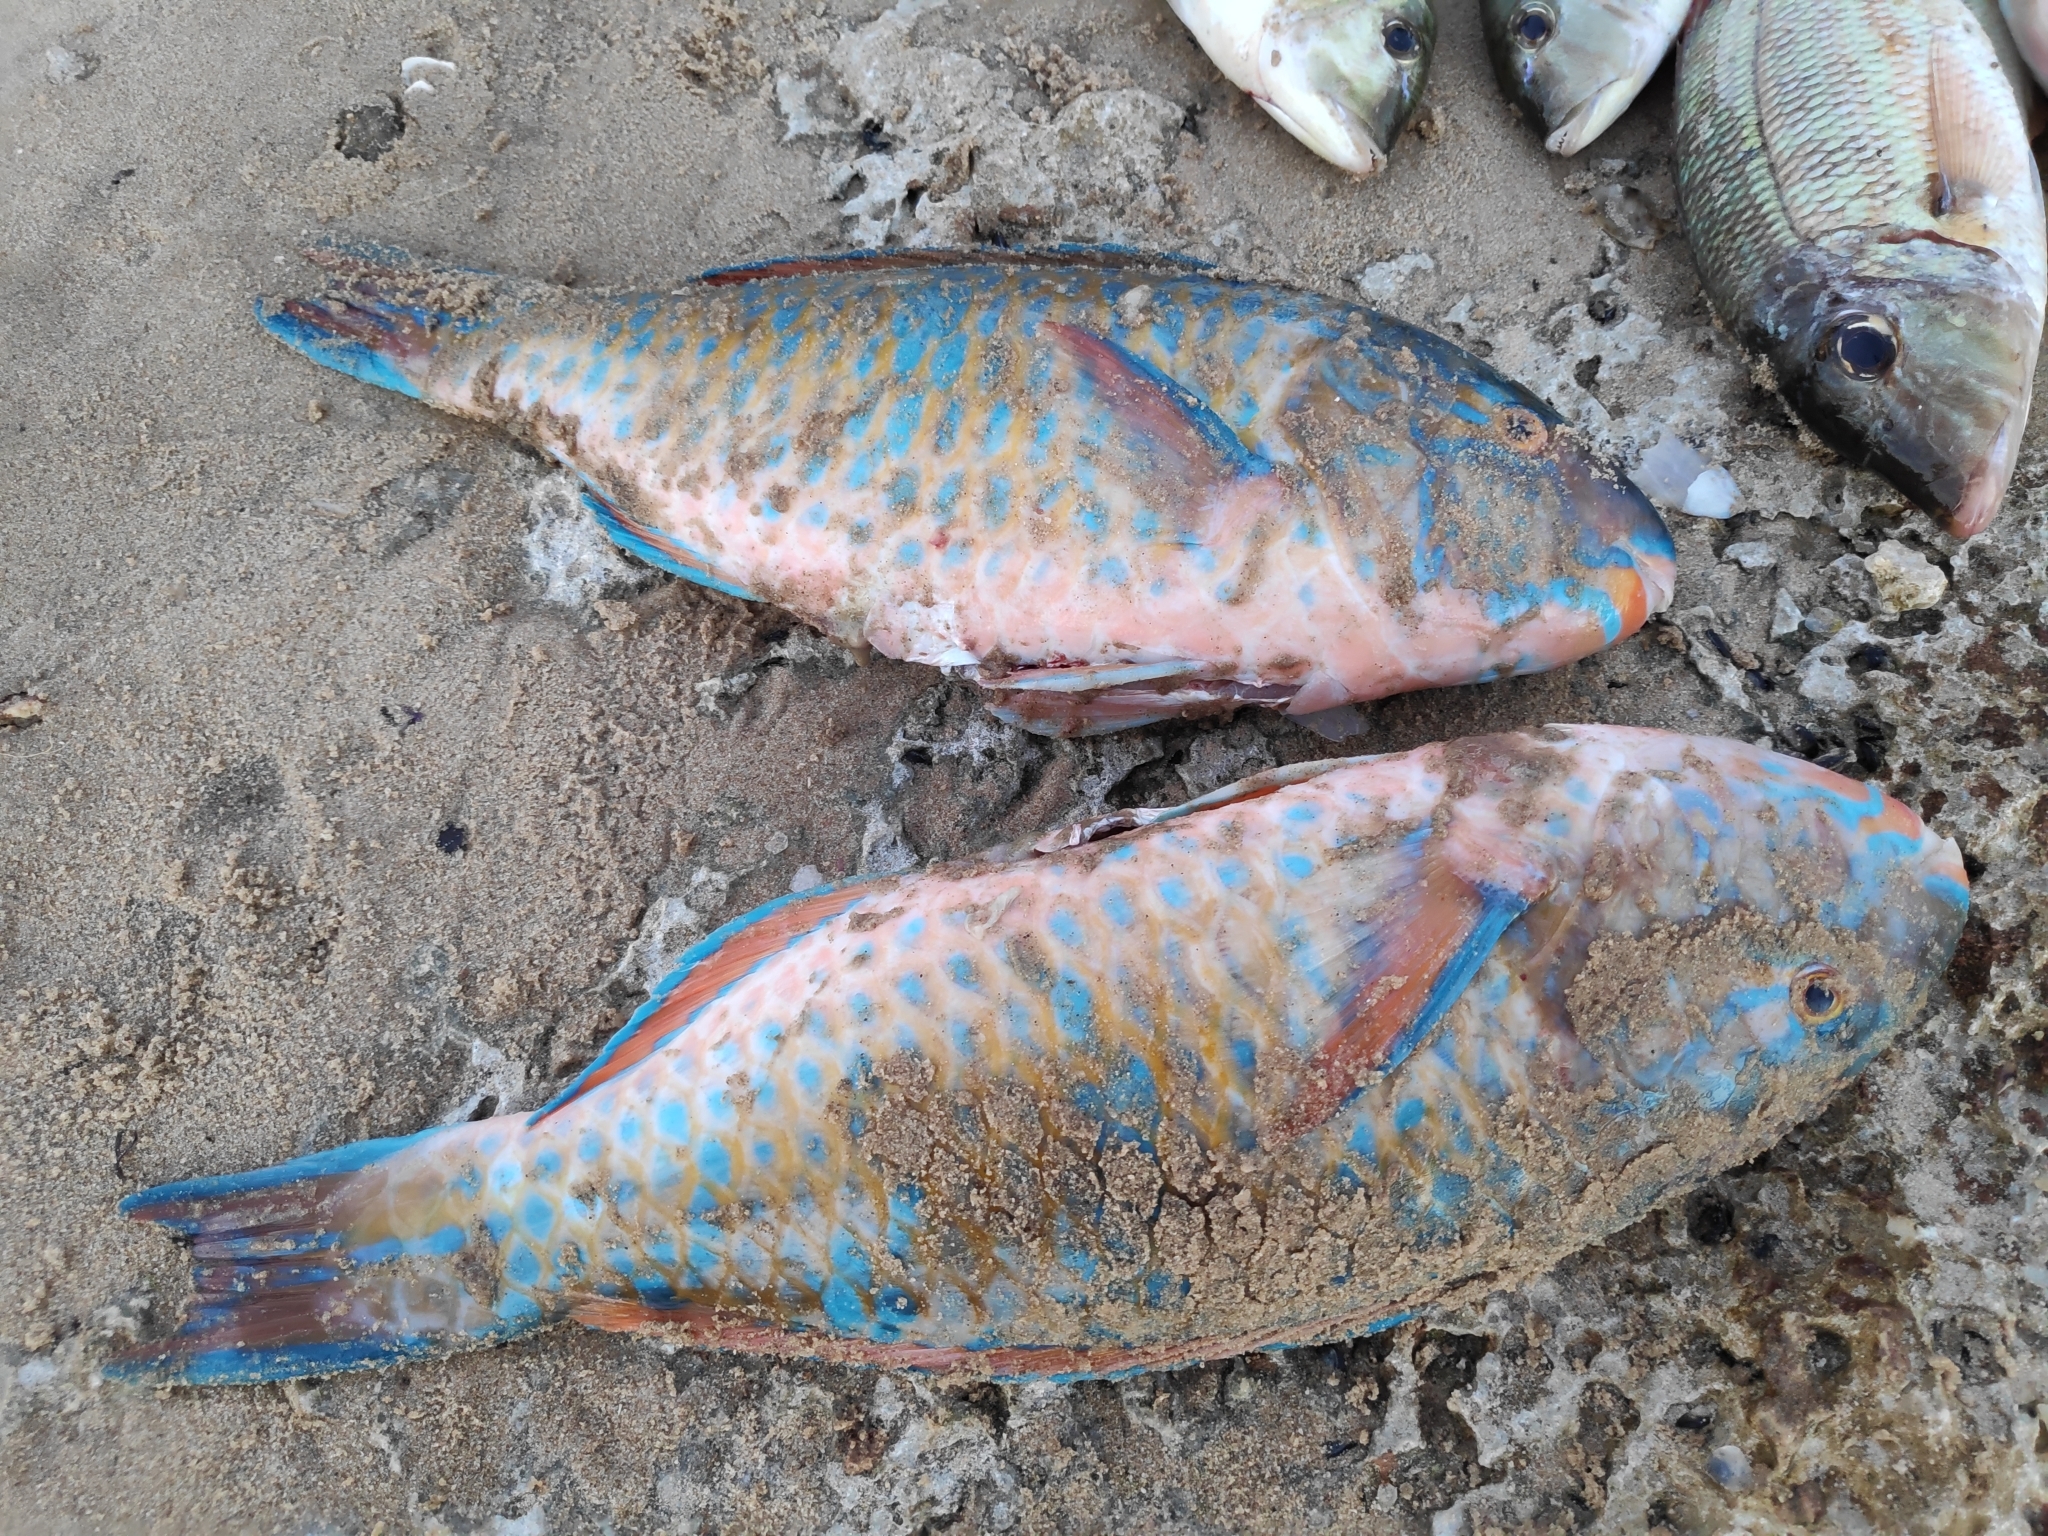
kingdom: Animalia
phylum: Chordata
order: Perciformes
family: Scaridae
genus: Scarus
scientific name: Scarus ghobban
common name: Blue-barred parrotfish
